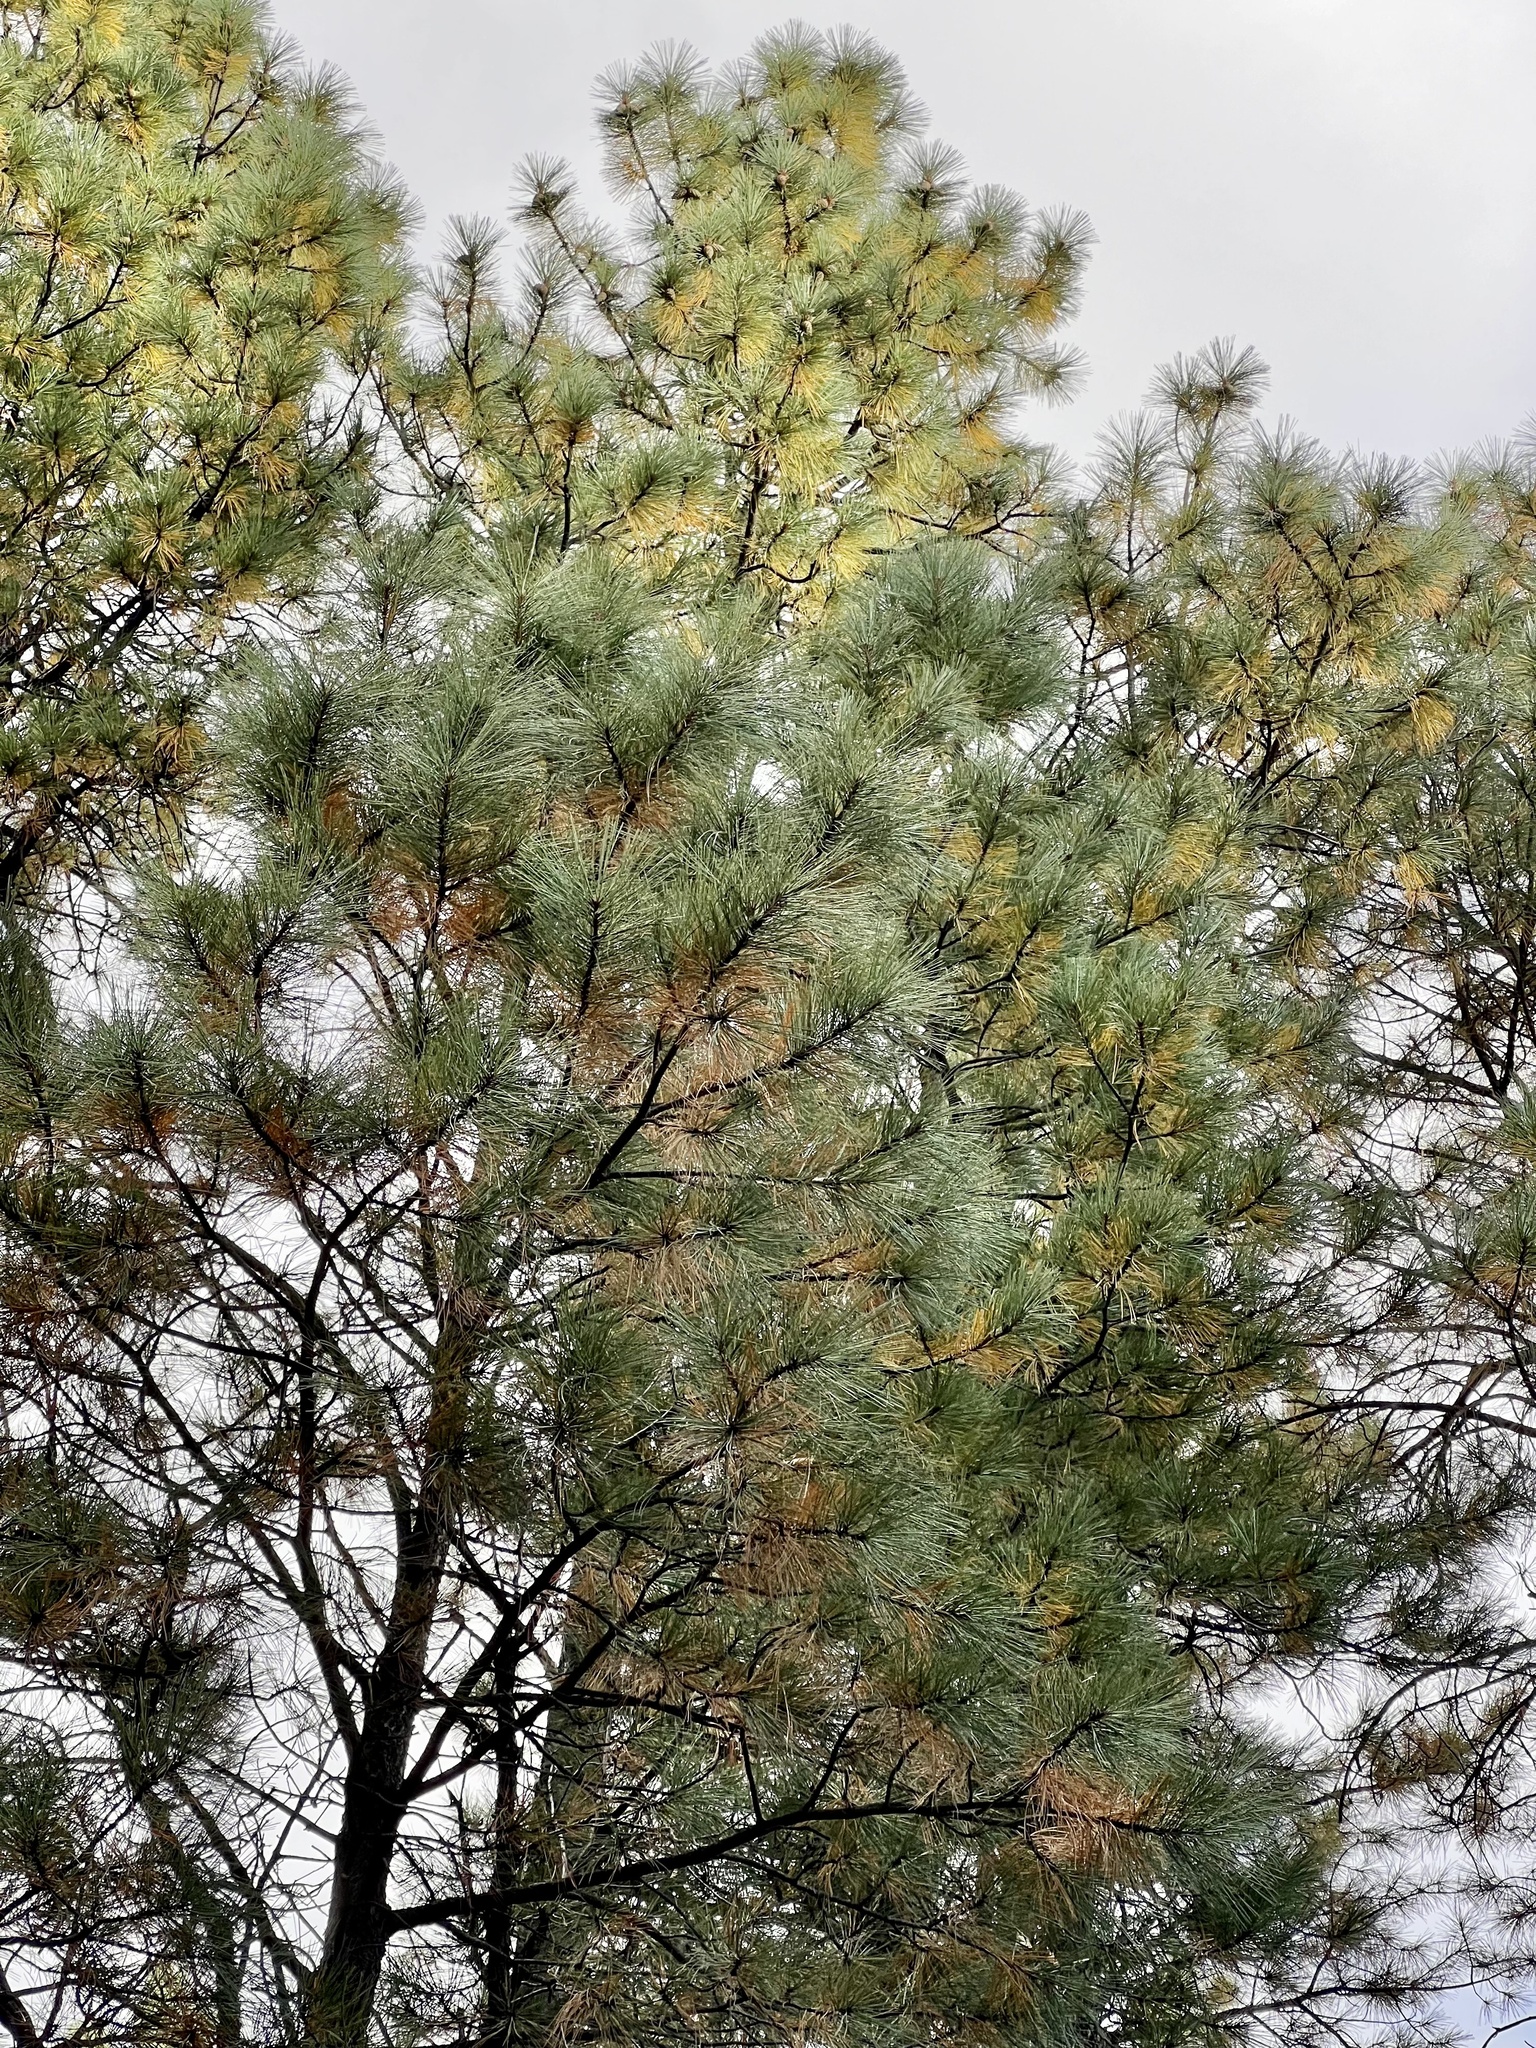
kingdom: Plantae
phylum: Tracheophyta
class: Pinopsida
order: Pinales
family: Pinaceae
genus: Pinus
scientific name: Pinus ponderosa
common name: Western yellow-pine
